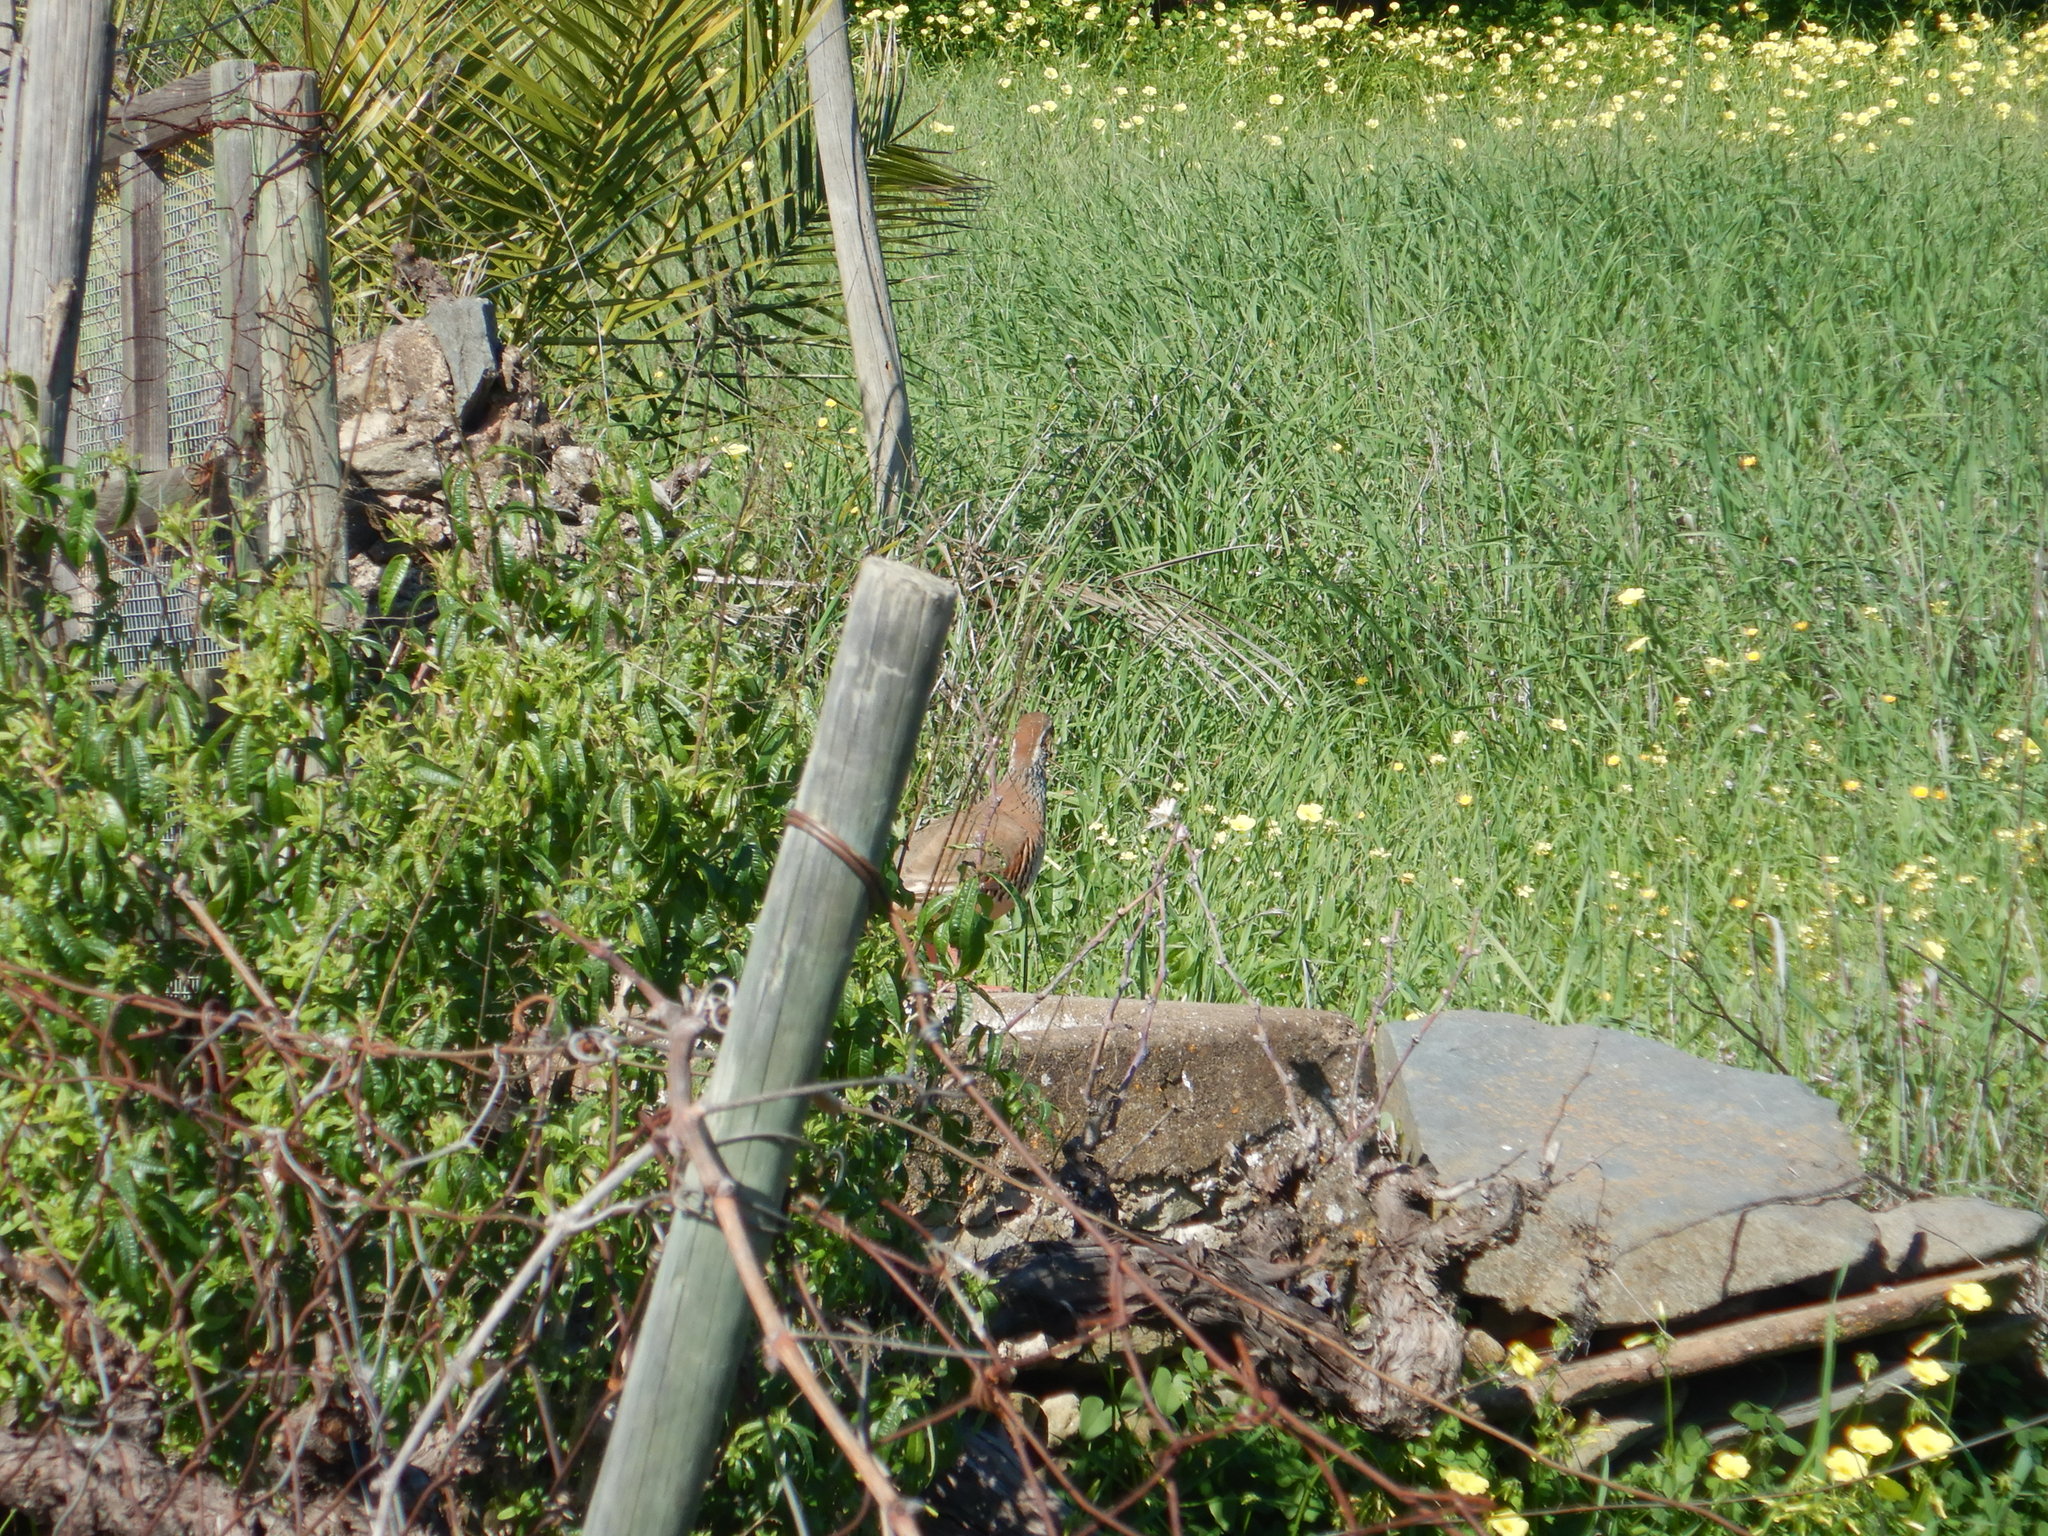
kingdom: Animalia
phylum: Chordata
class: Aves
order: Galliformes
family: Phasianidae
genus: Alectoris
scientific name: Alectoris rufa
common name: Red-legged partridge
